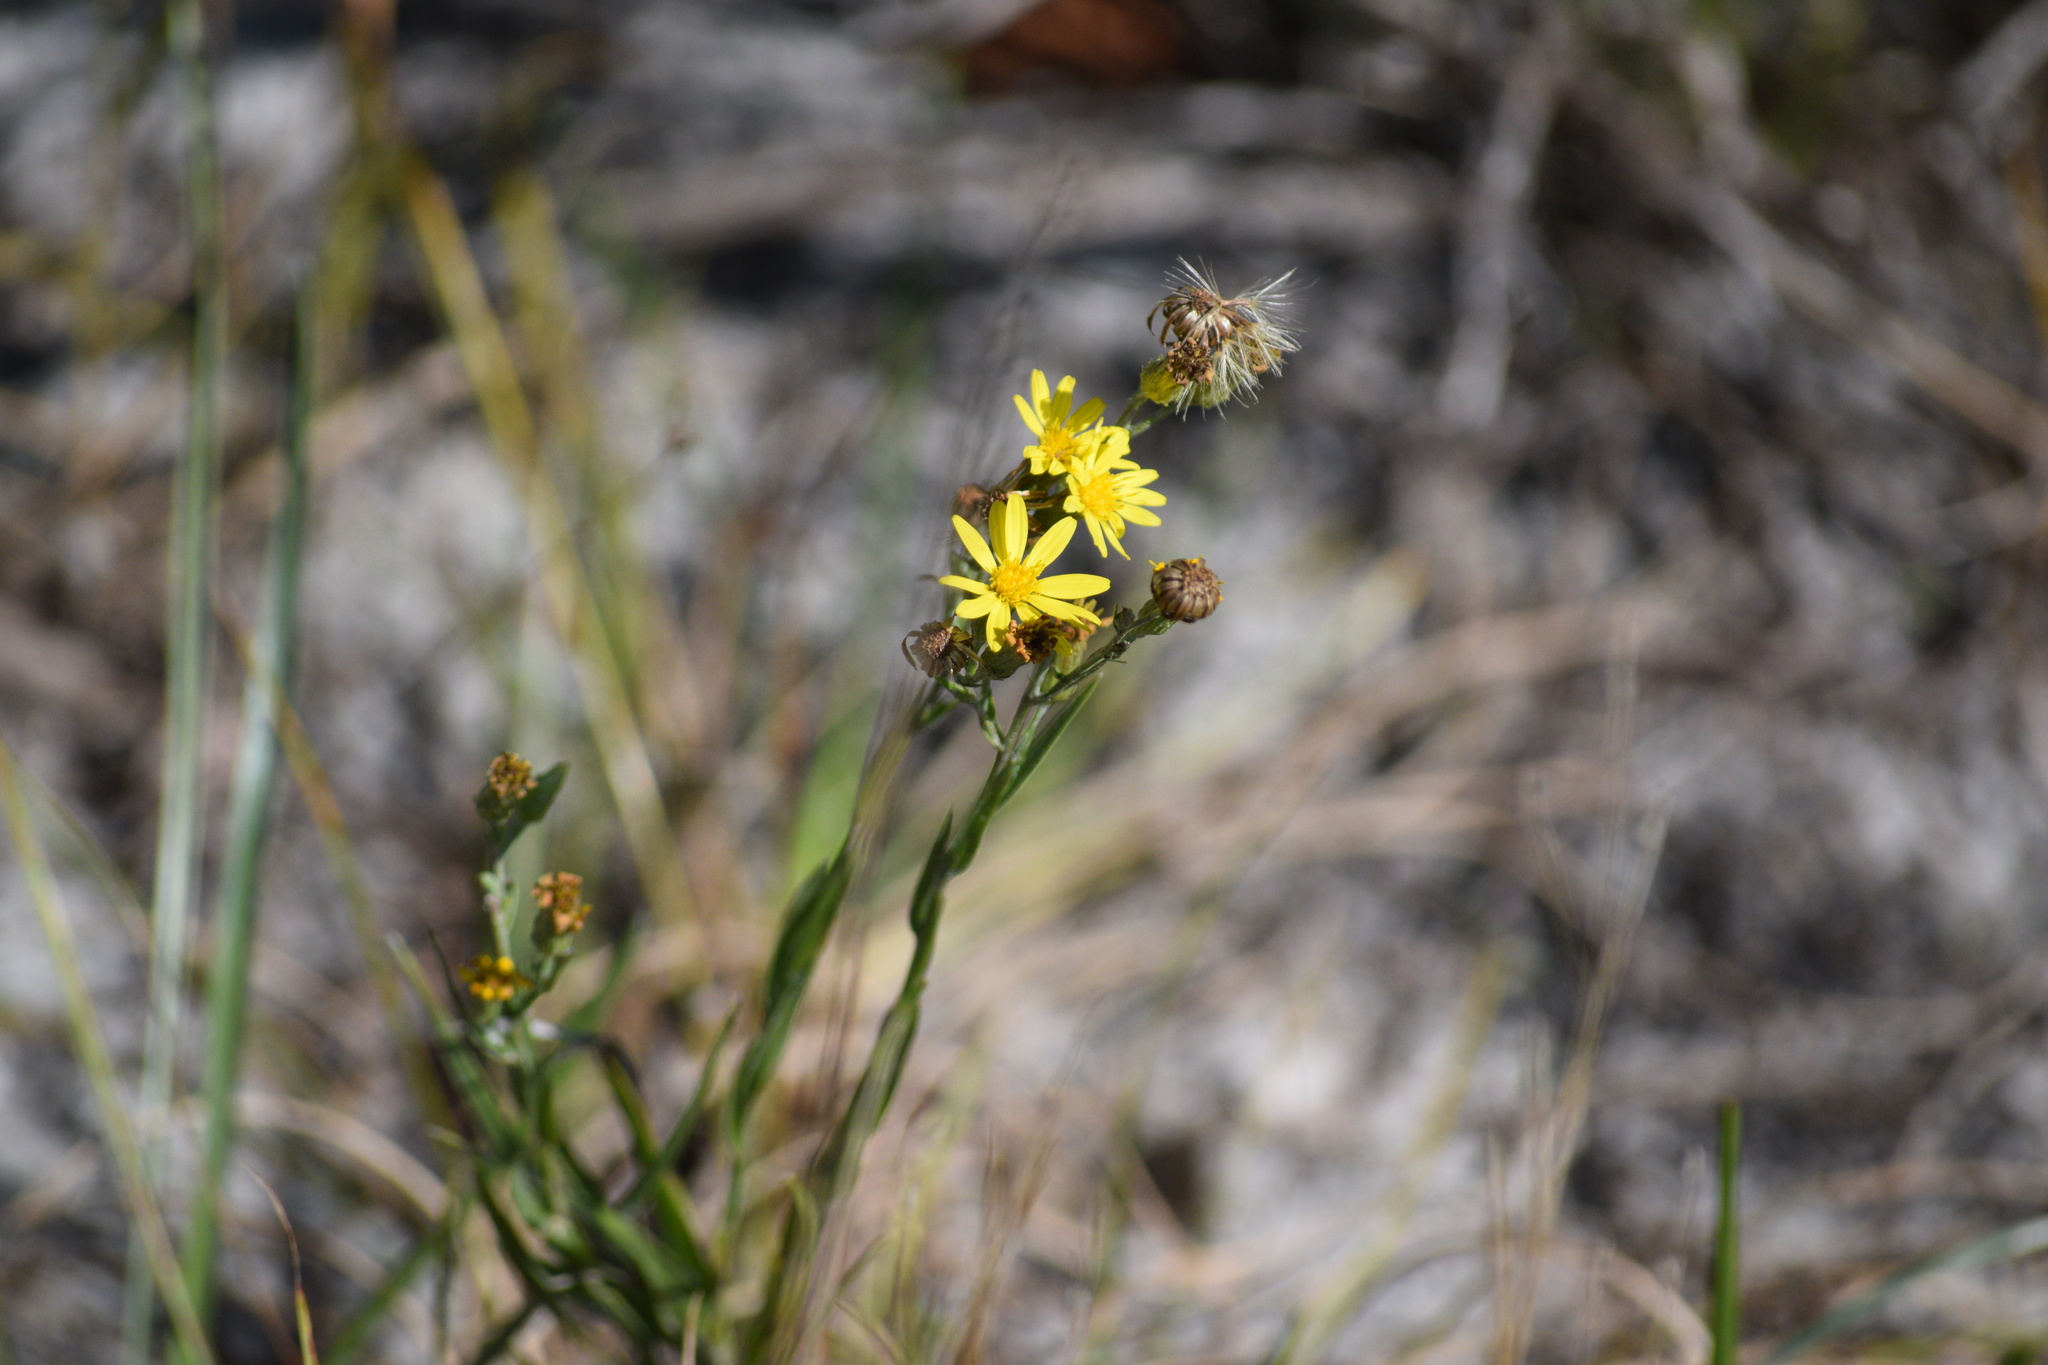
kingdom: Plantae
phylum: Tracheophyta
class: Magnoliopsida
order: Asterales
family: Asteraceae
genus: Pityopsis
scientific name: Pityopsis graminifolia
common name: Grass-leaf golden-aster
